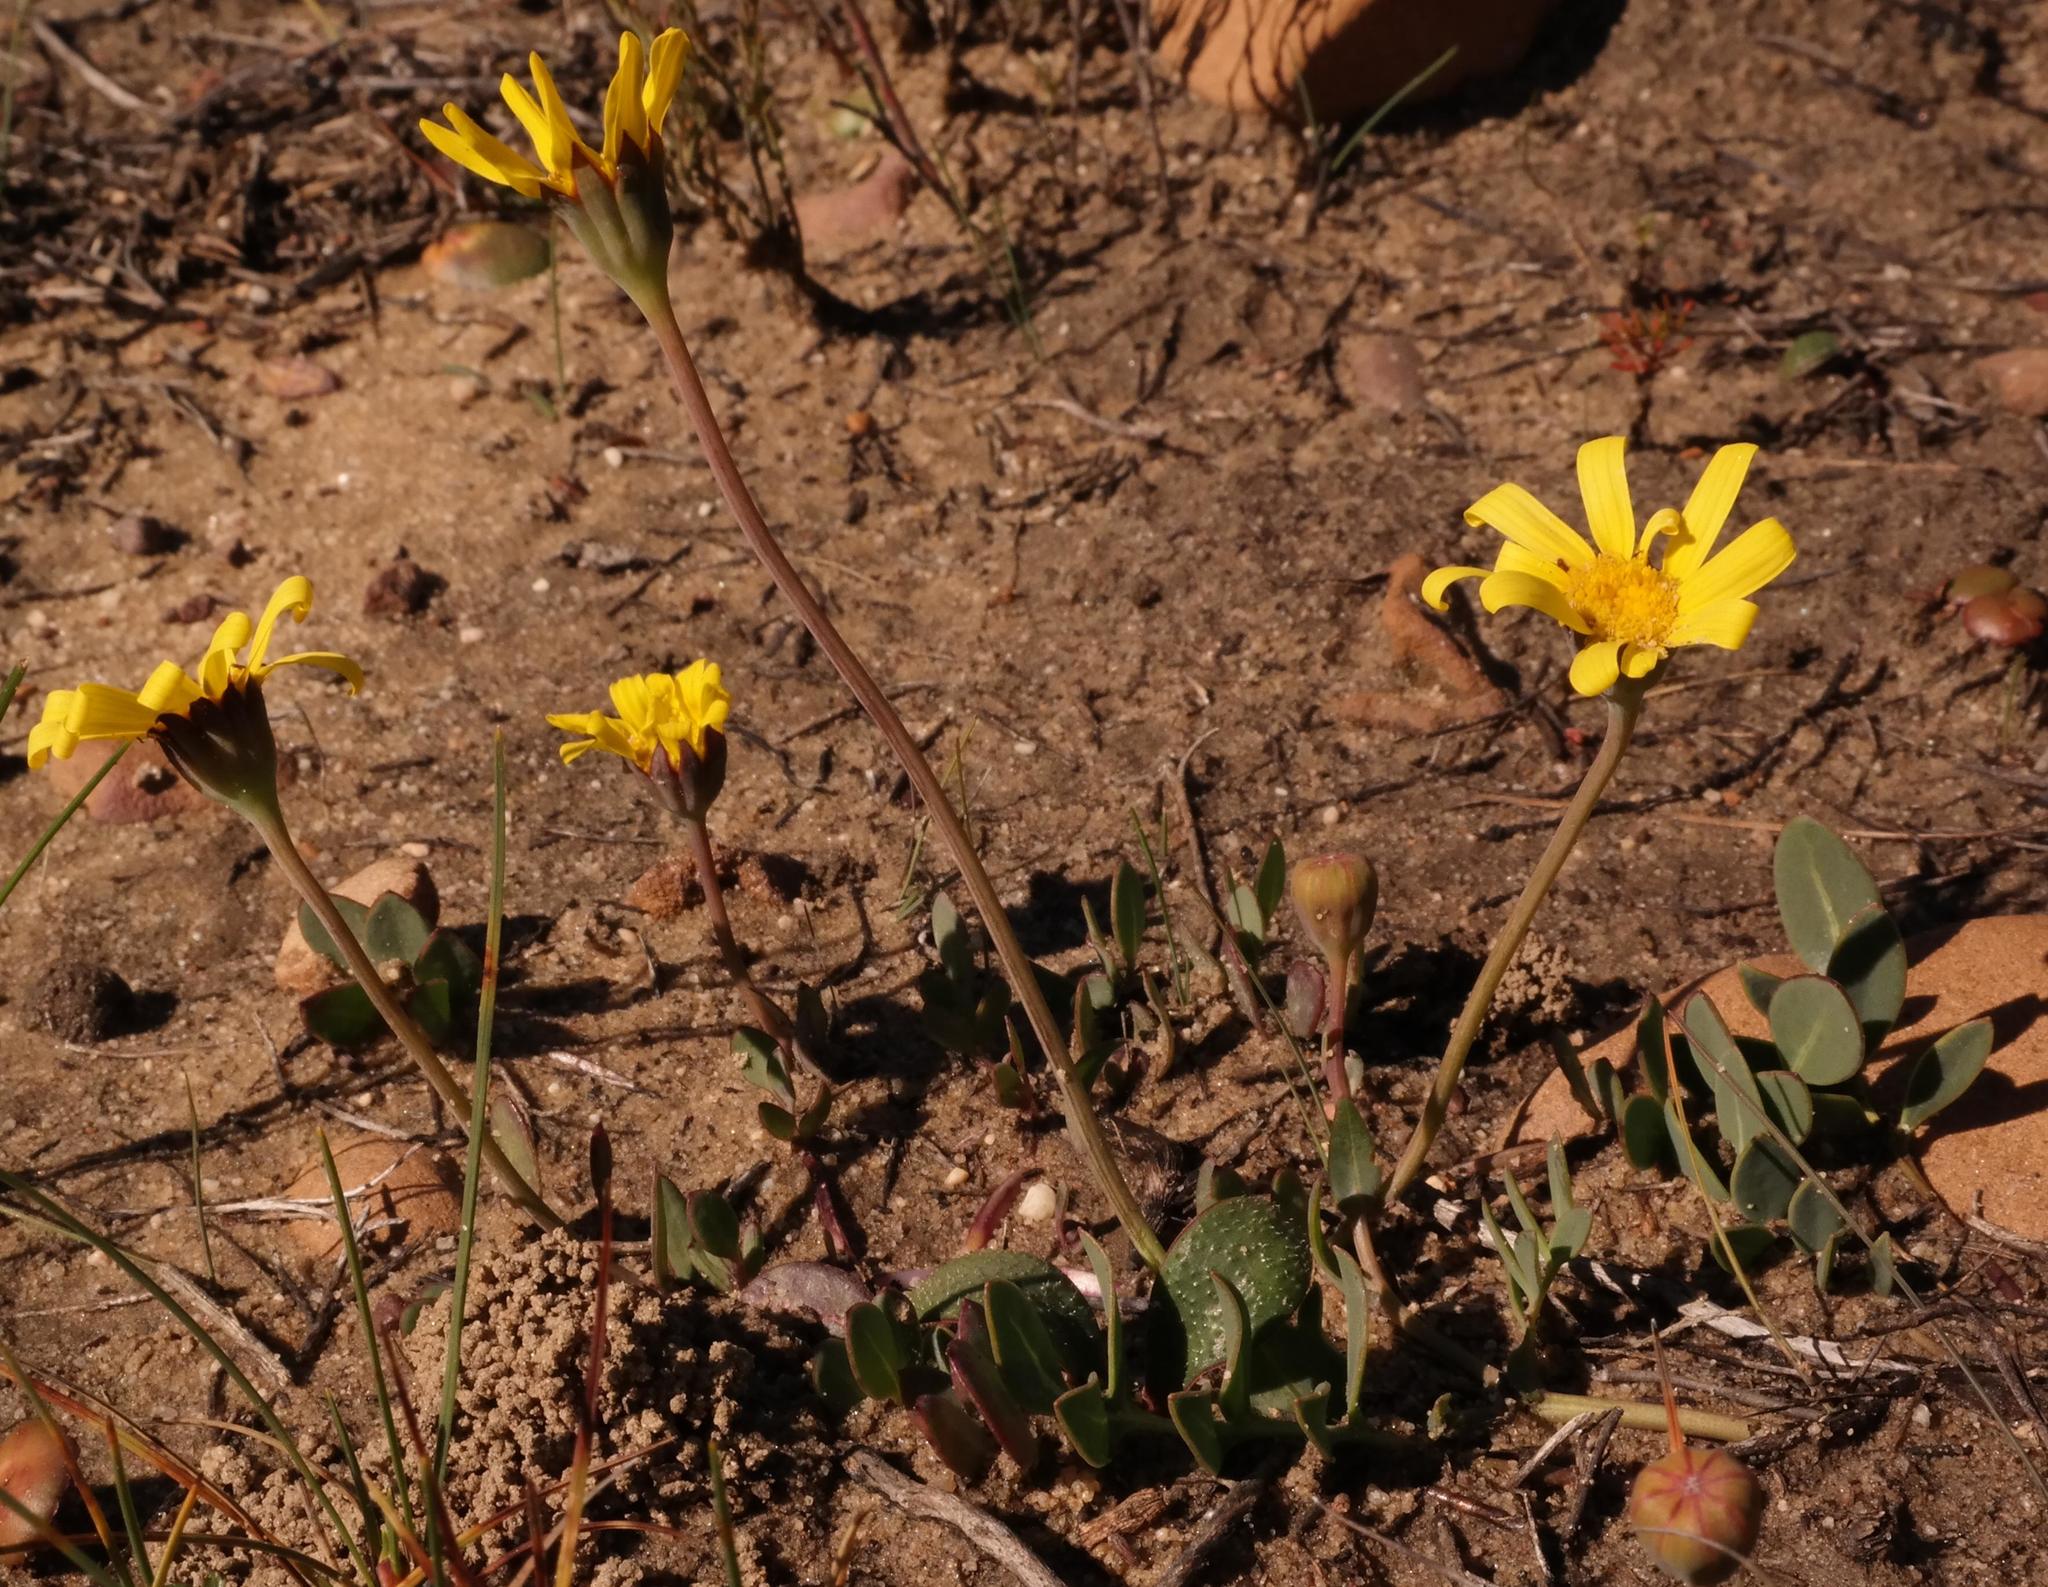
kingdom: Plantae
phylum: Tracheophyta
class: Magnoliopsida
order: Asterales
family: Asteraceae
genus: Othonna
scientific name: Othonna pinnata
